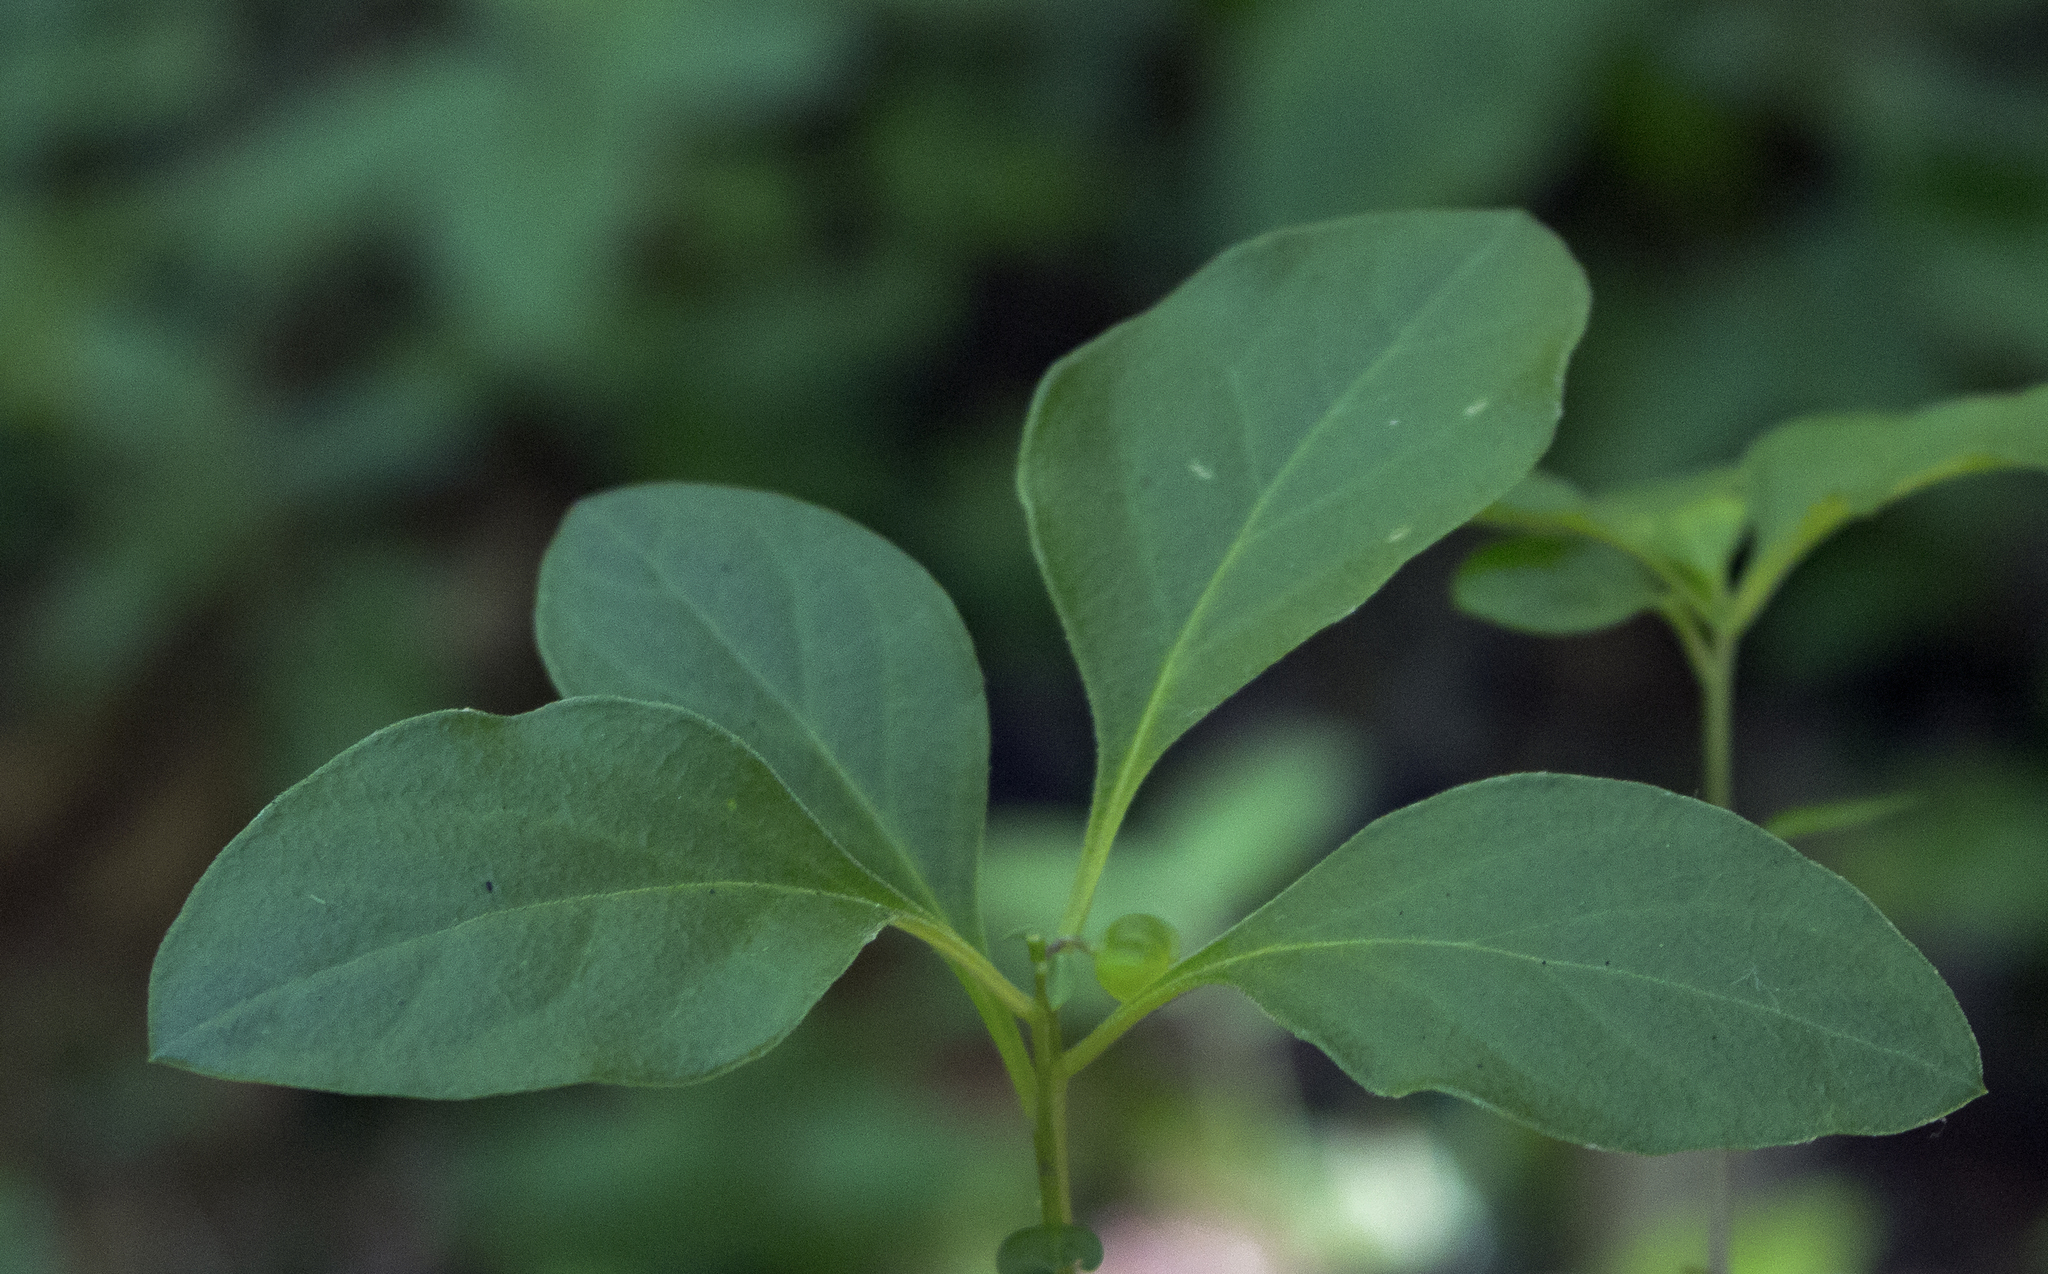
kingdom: Plantae
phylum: Tracheophyta
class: Magnoliopsida
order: Fabales
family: Polygalaceae
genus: Polygaloides
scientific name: Polygaloides paucifolia
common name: Bird-on-the-wing
